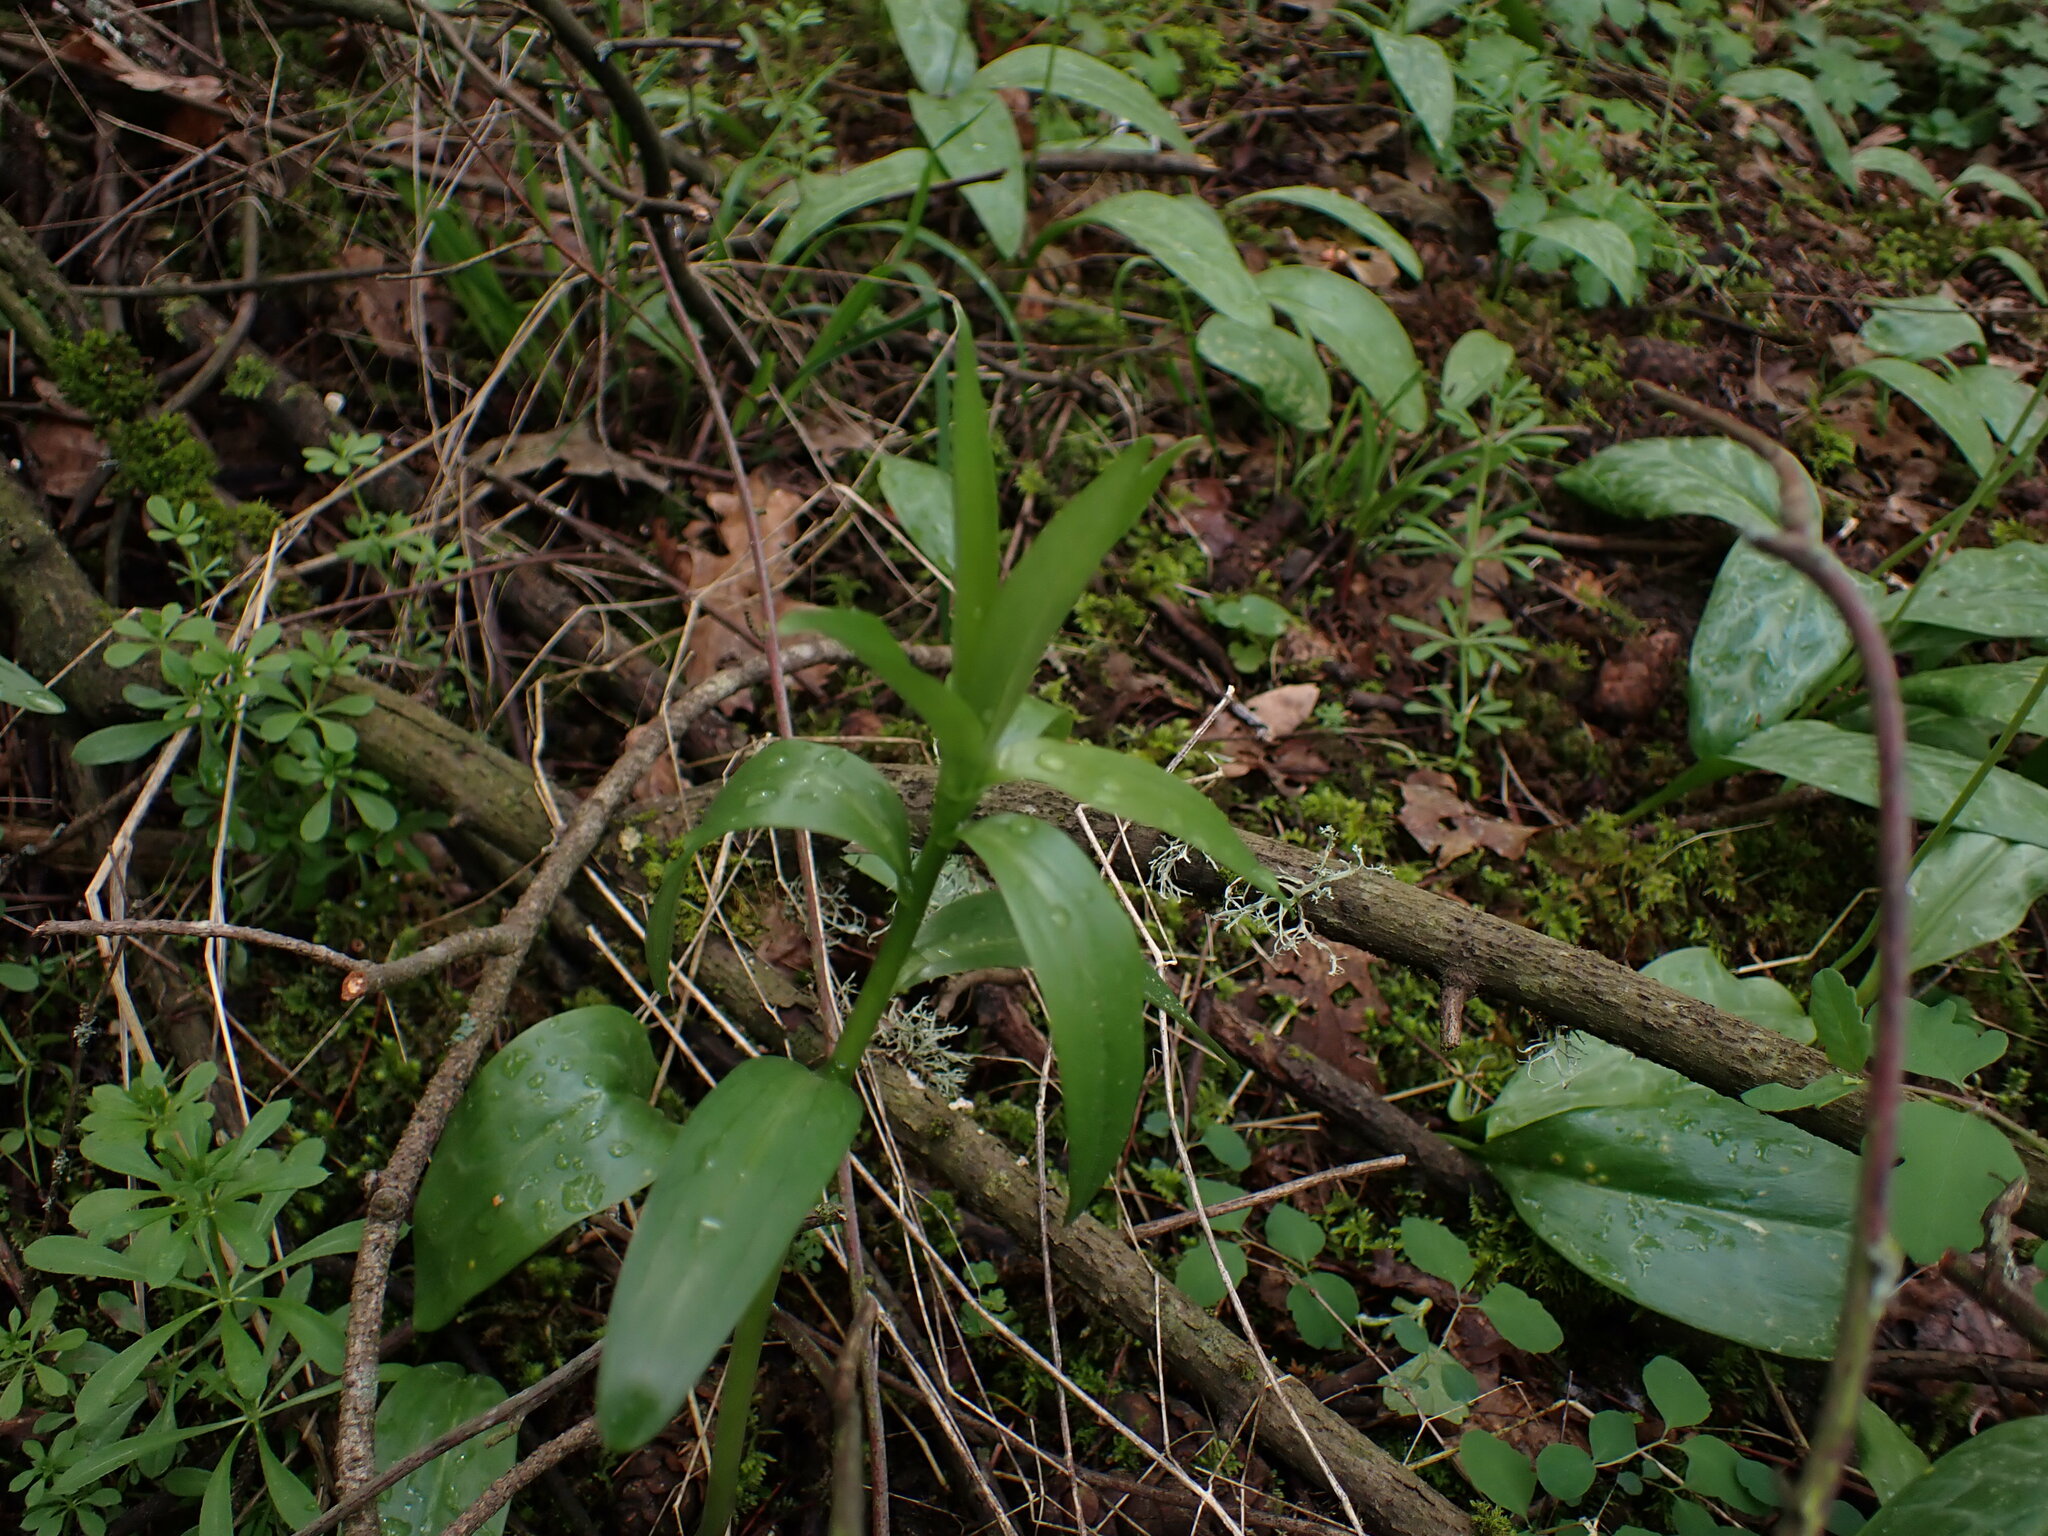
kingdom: Plantae
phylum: Tracheophyta
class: Liliopsida
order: Liliales
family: Liliaceae
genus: Lilium
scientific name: Lilium columbianum
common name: Columbia lily
